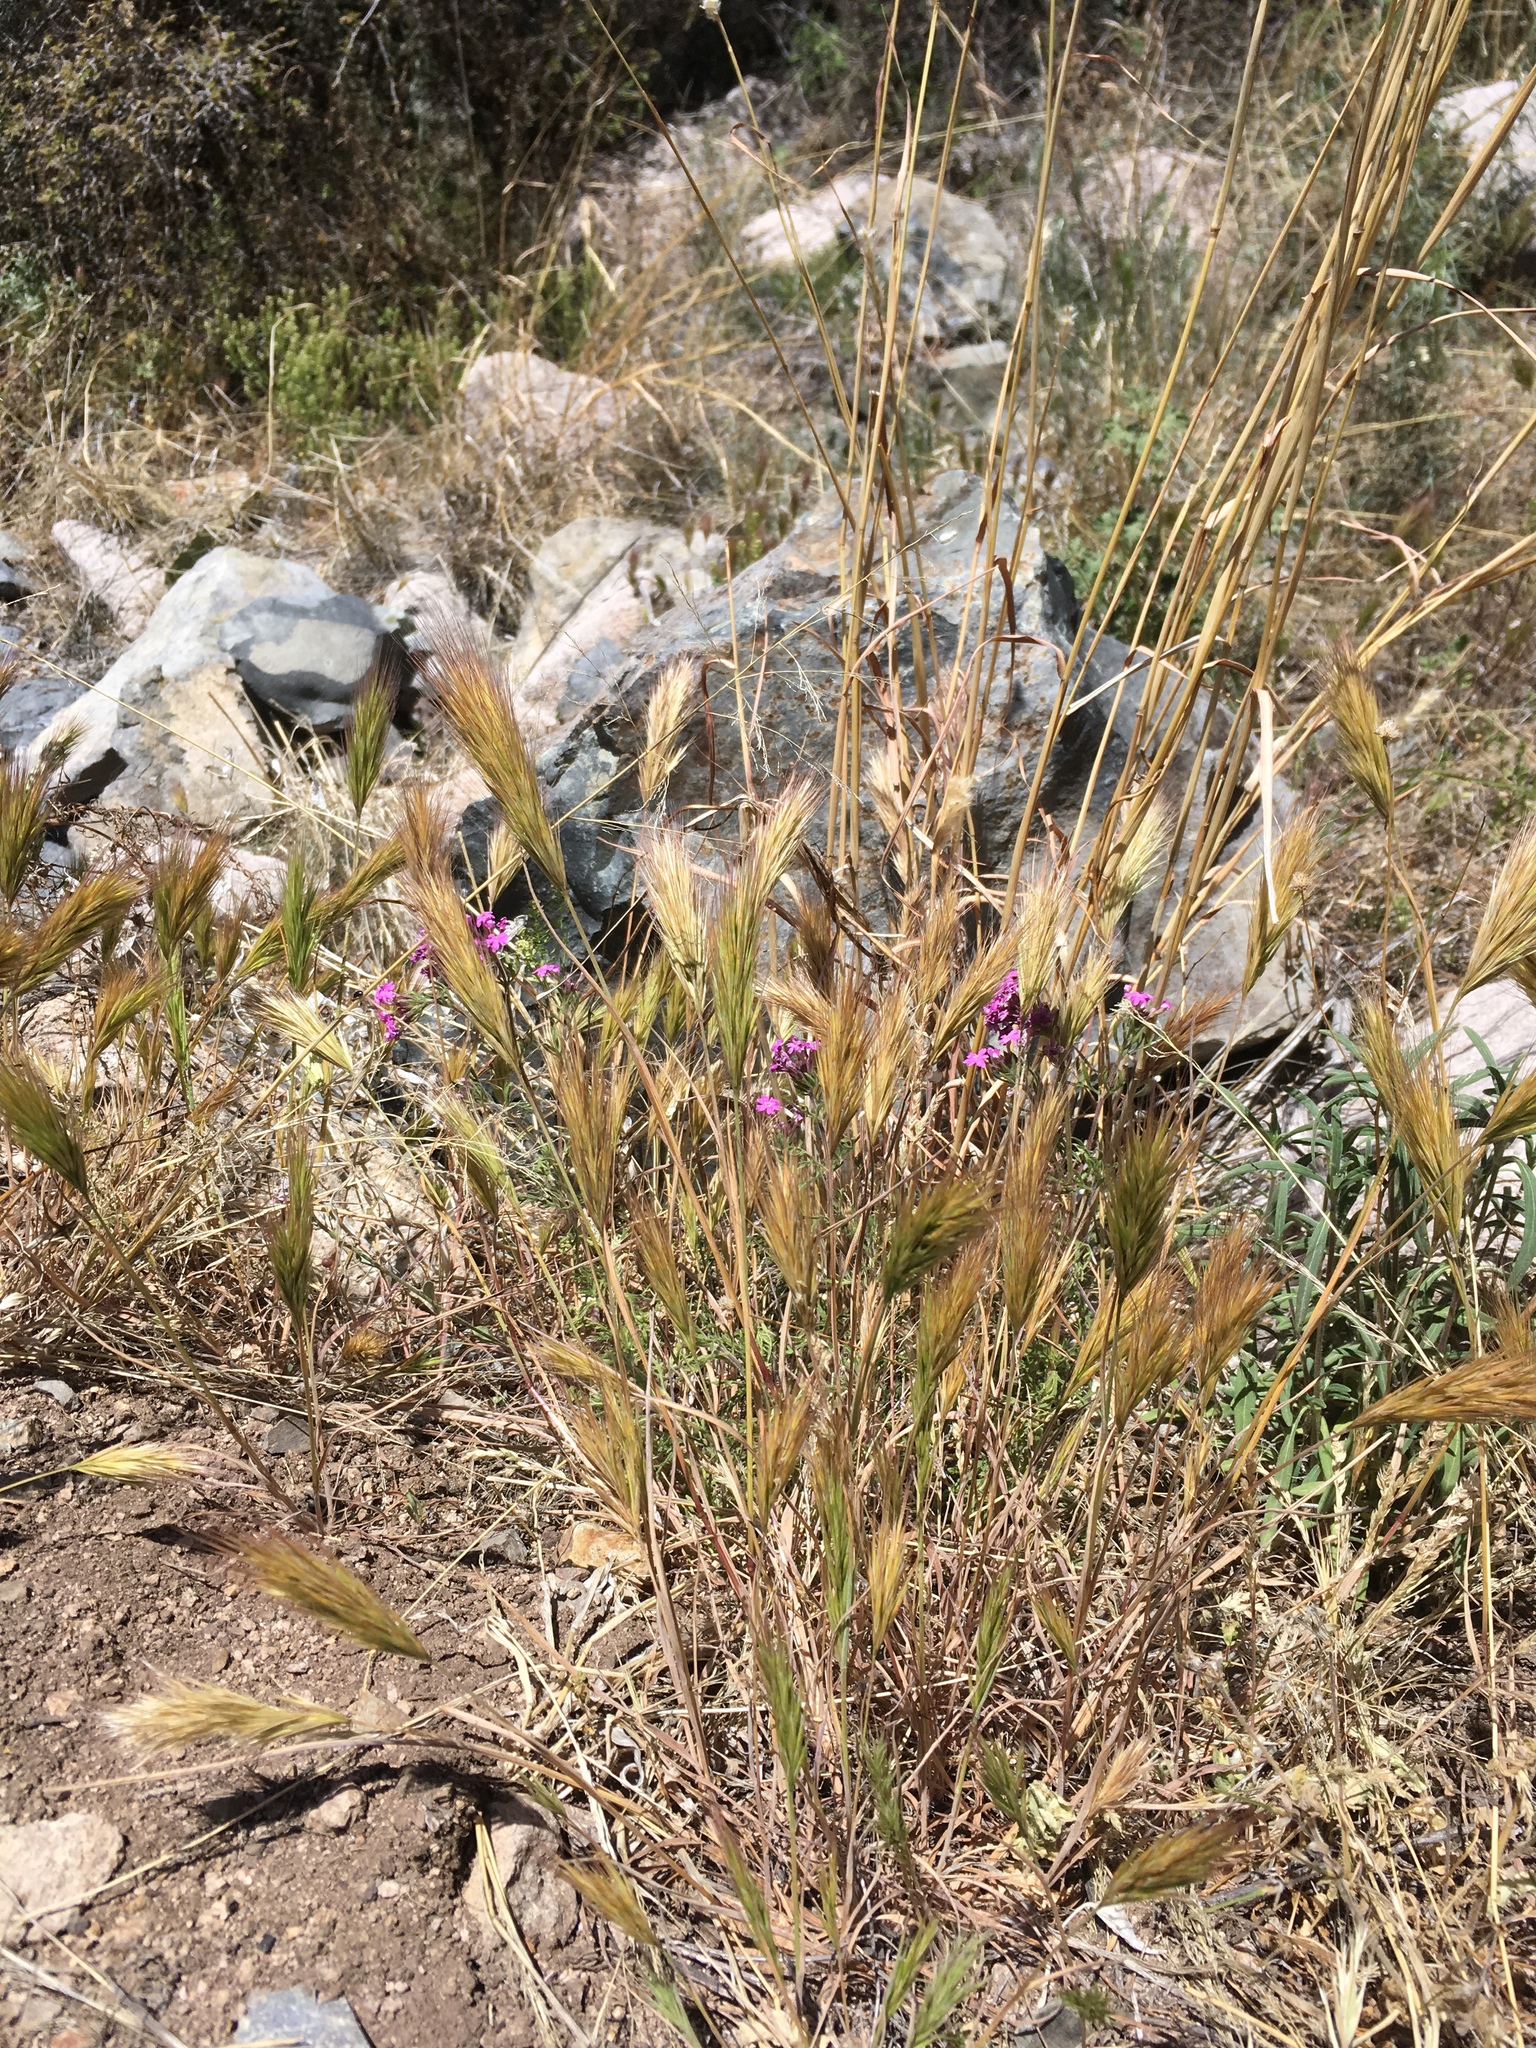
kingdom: Plantae
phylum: Tracheophyta
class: Liliopsida
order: Poales
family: Poaceae
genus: Bromus
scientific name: Bromus rubens
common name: Red brome
